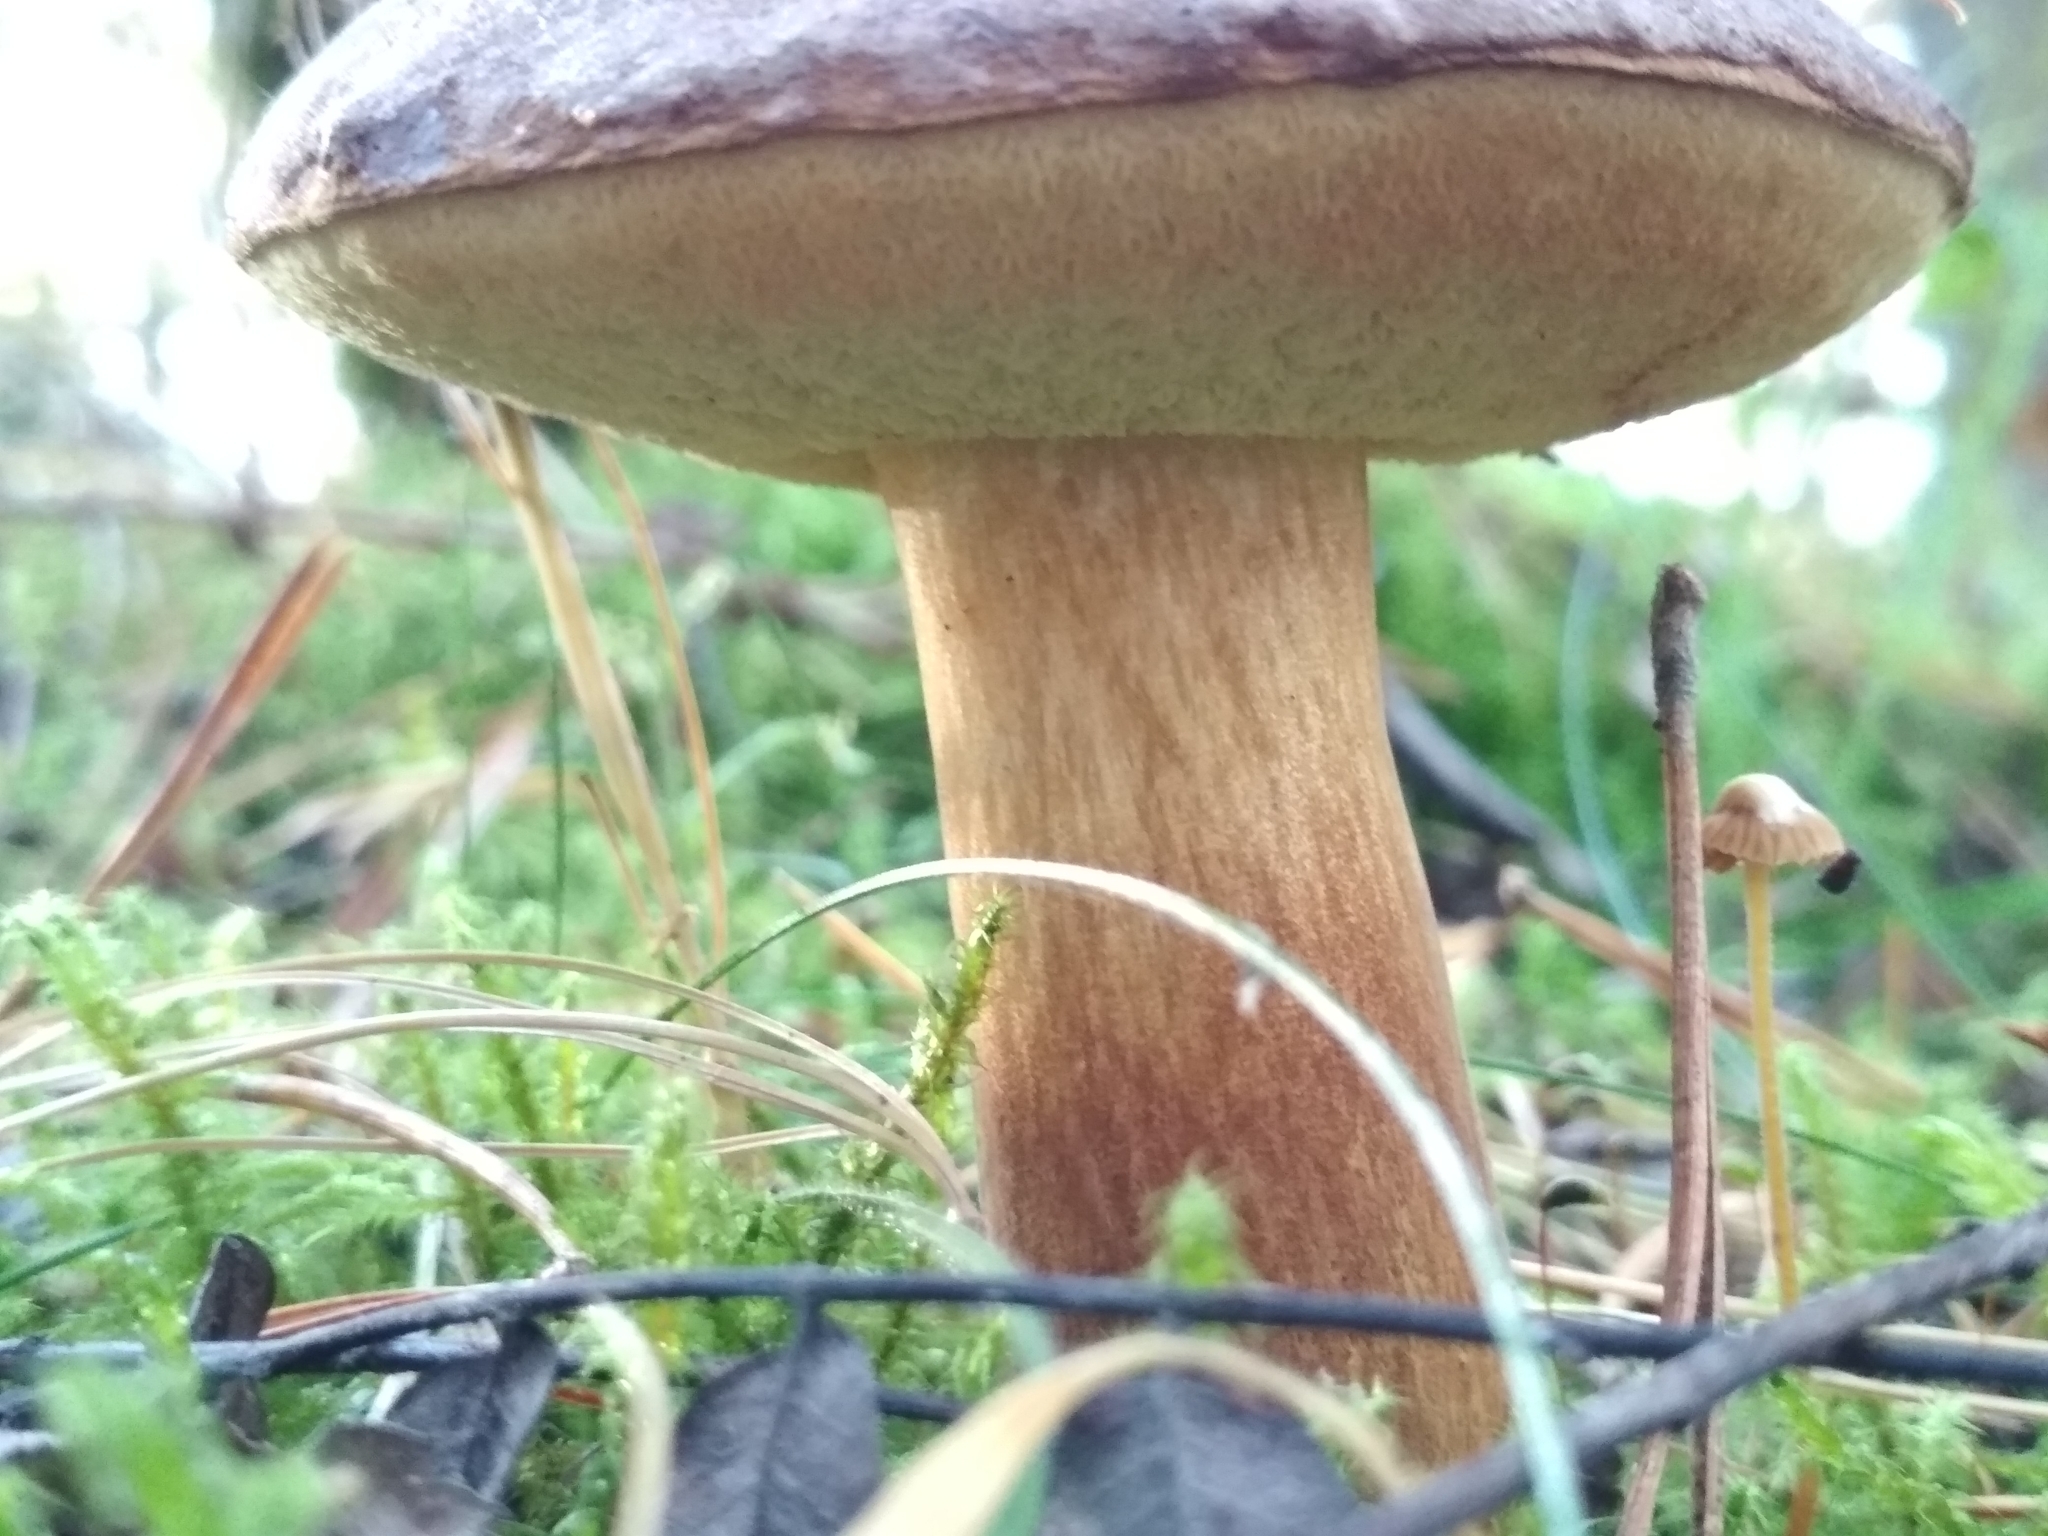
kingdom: Fungi
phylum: Basidiomycota
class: Agaricomycetes
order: Boletales
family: Boletaceae
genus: Imleria
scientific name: Imleria badia
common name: Bay bolete
